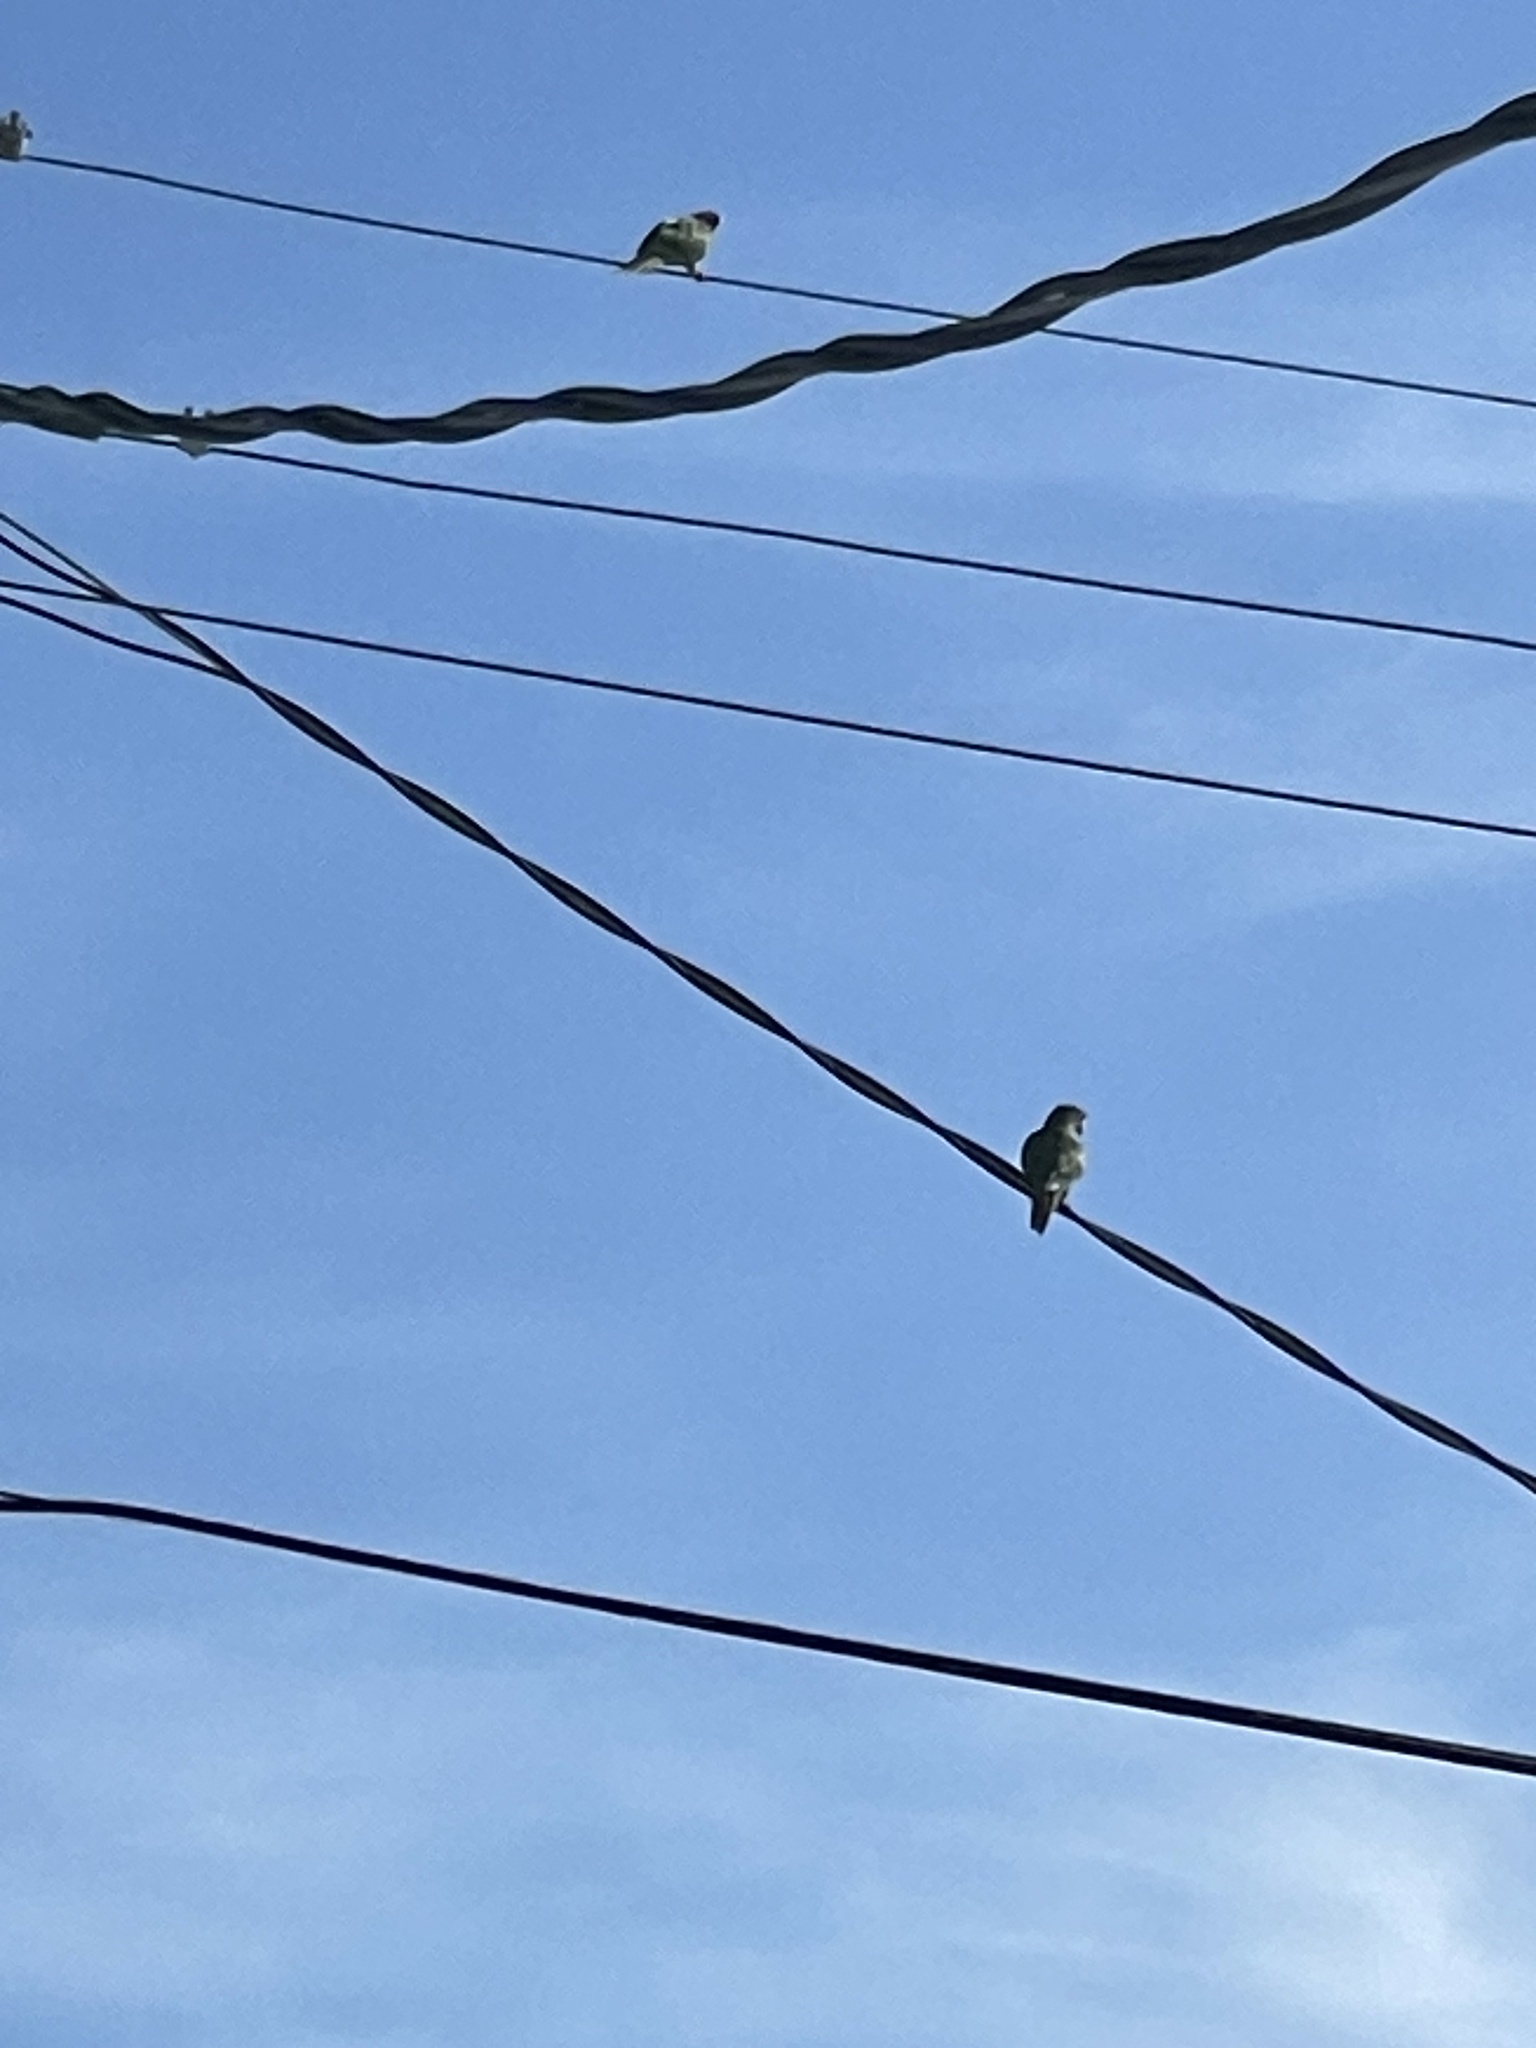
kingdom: Animalia
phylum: Chordata
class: Aves
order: Psittaciformes
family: Psittacidae
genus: Aratinga
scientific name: Aratinga acuticaudata
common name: Blue-crowned parakeet
